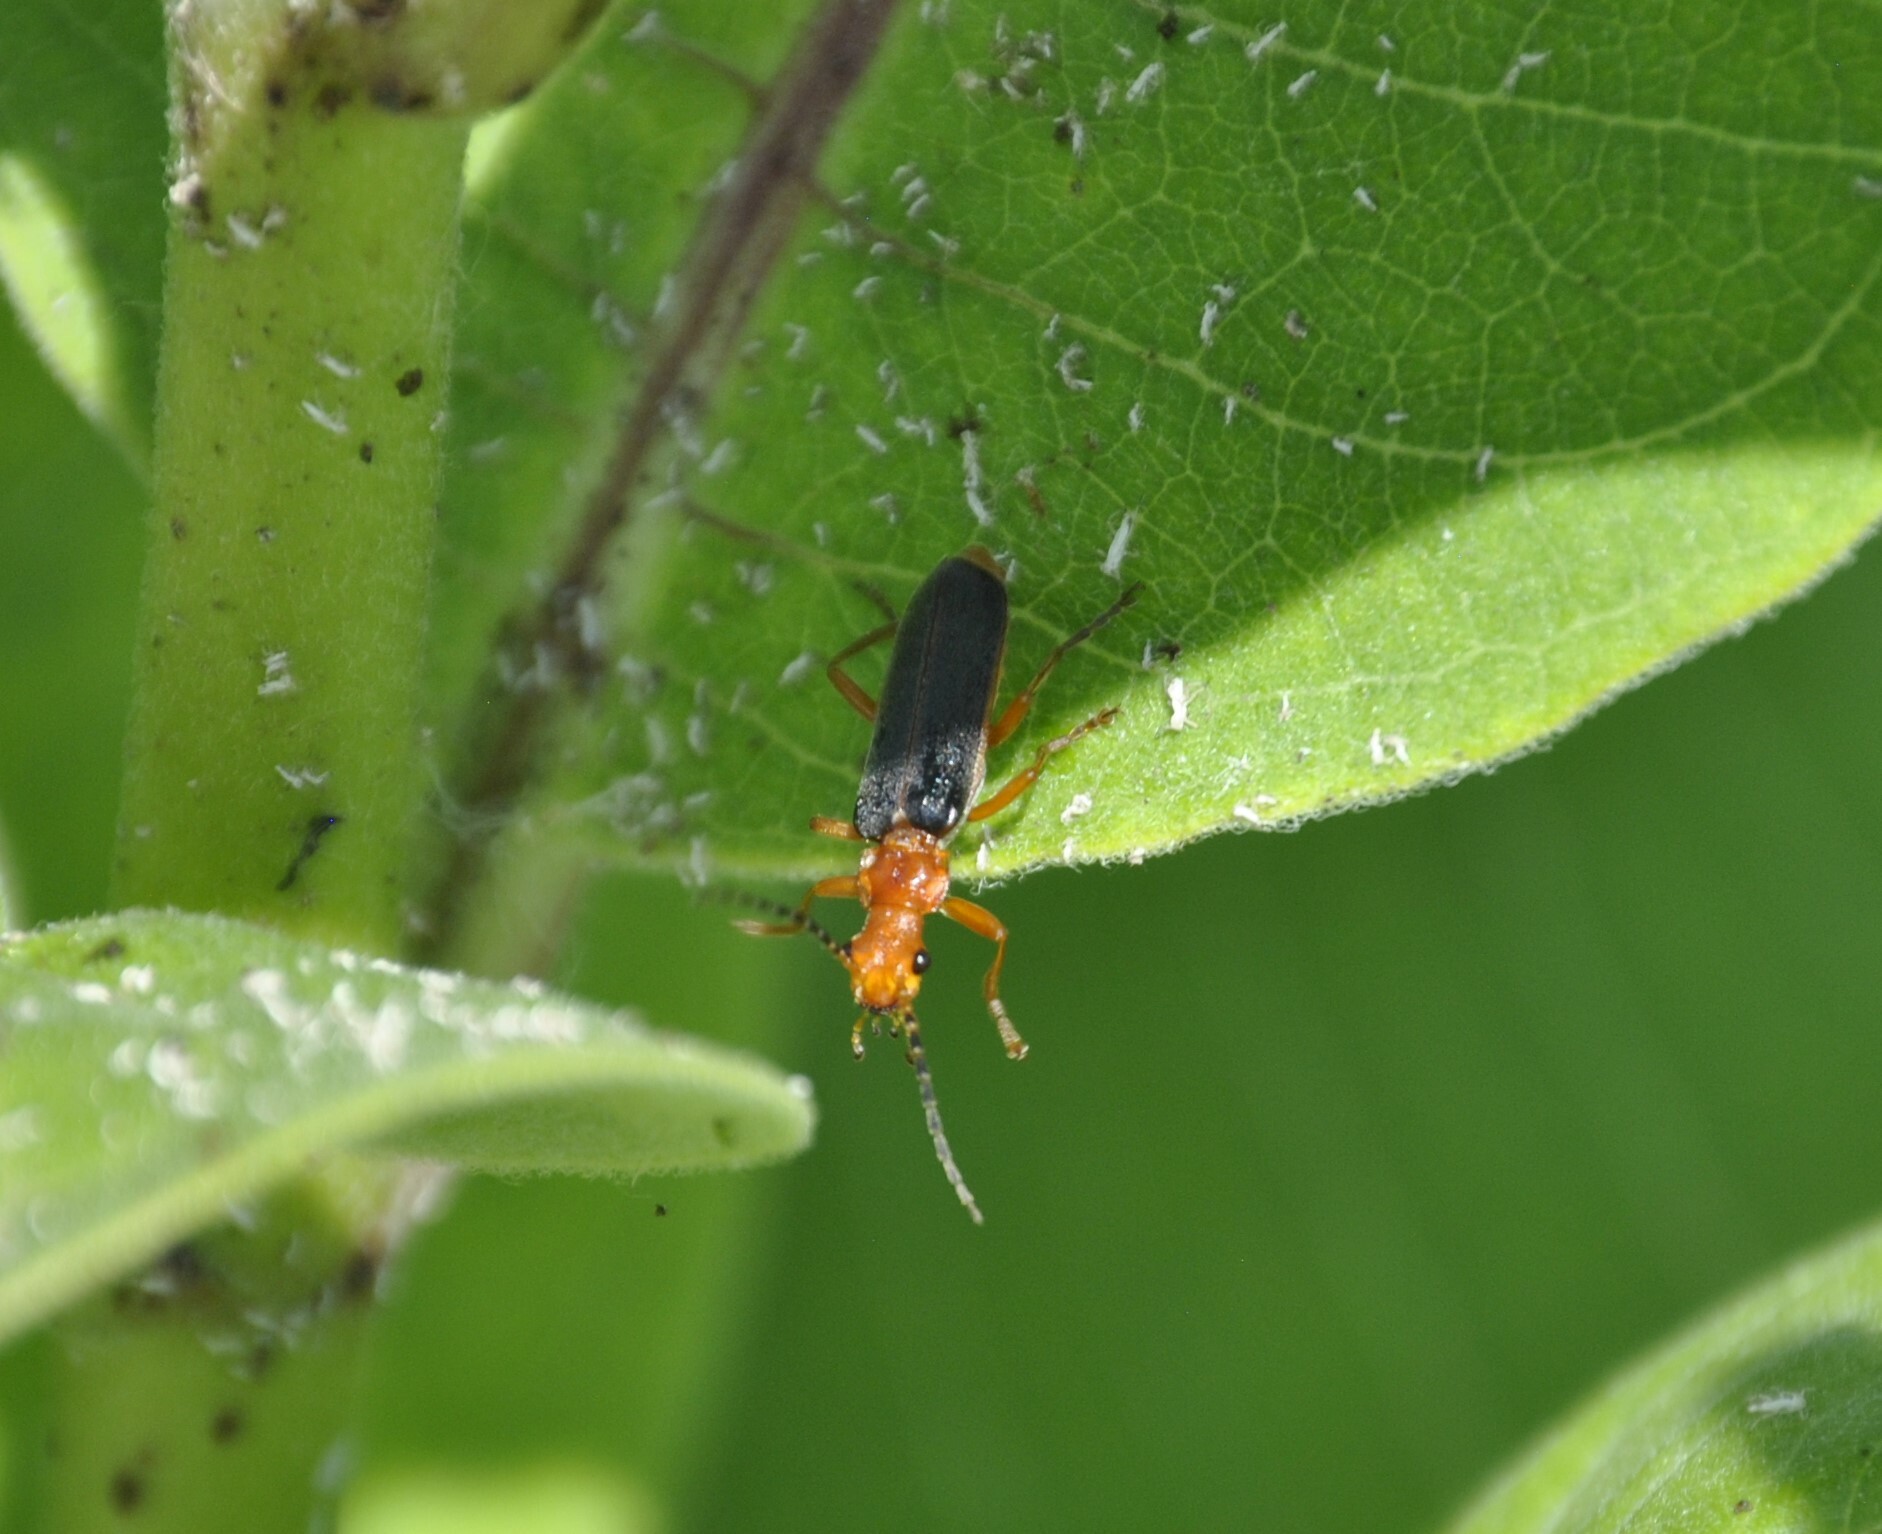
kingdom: Animalia
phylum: Arthropoda
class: Insecta
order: Coleoptera
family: Cantharidae
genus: Podabrus
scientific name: Podabrus tomentosus
